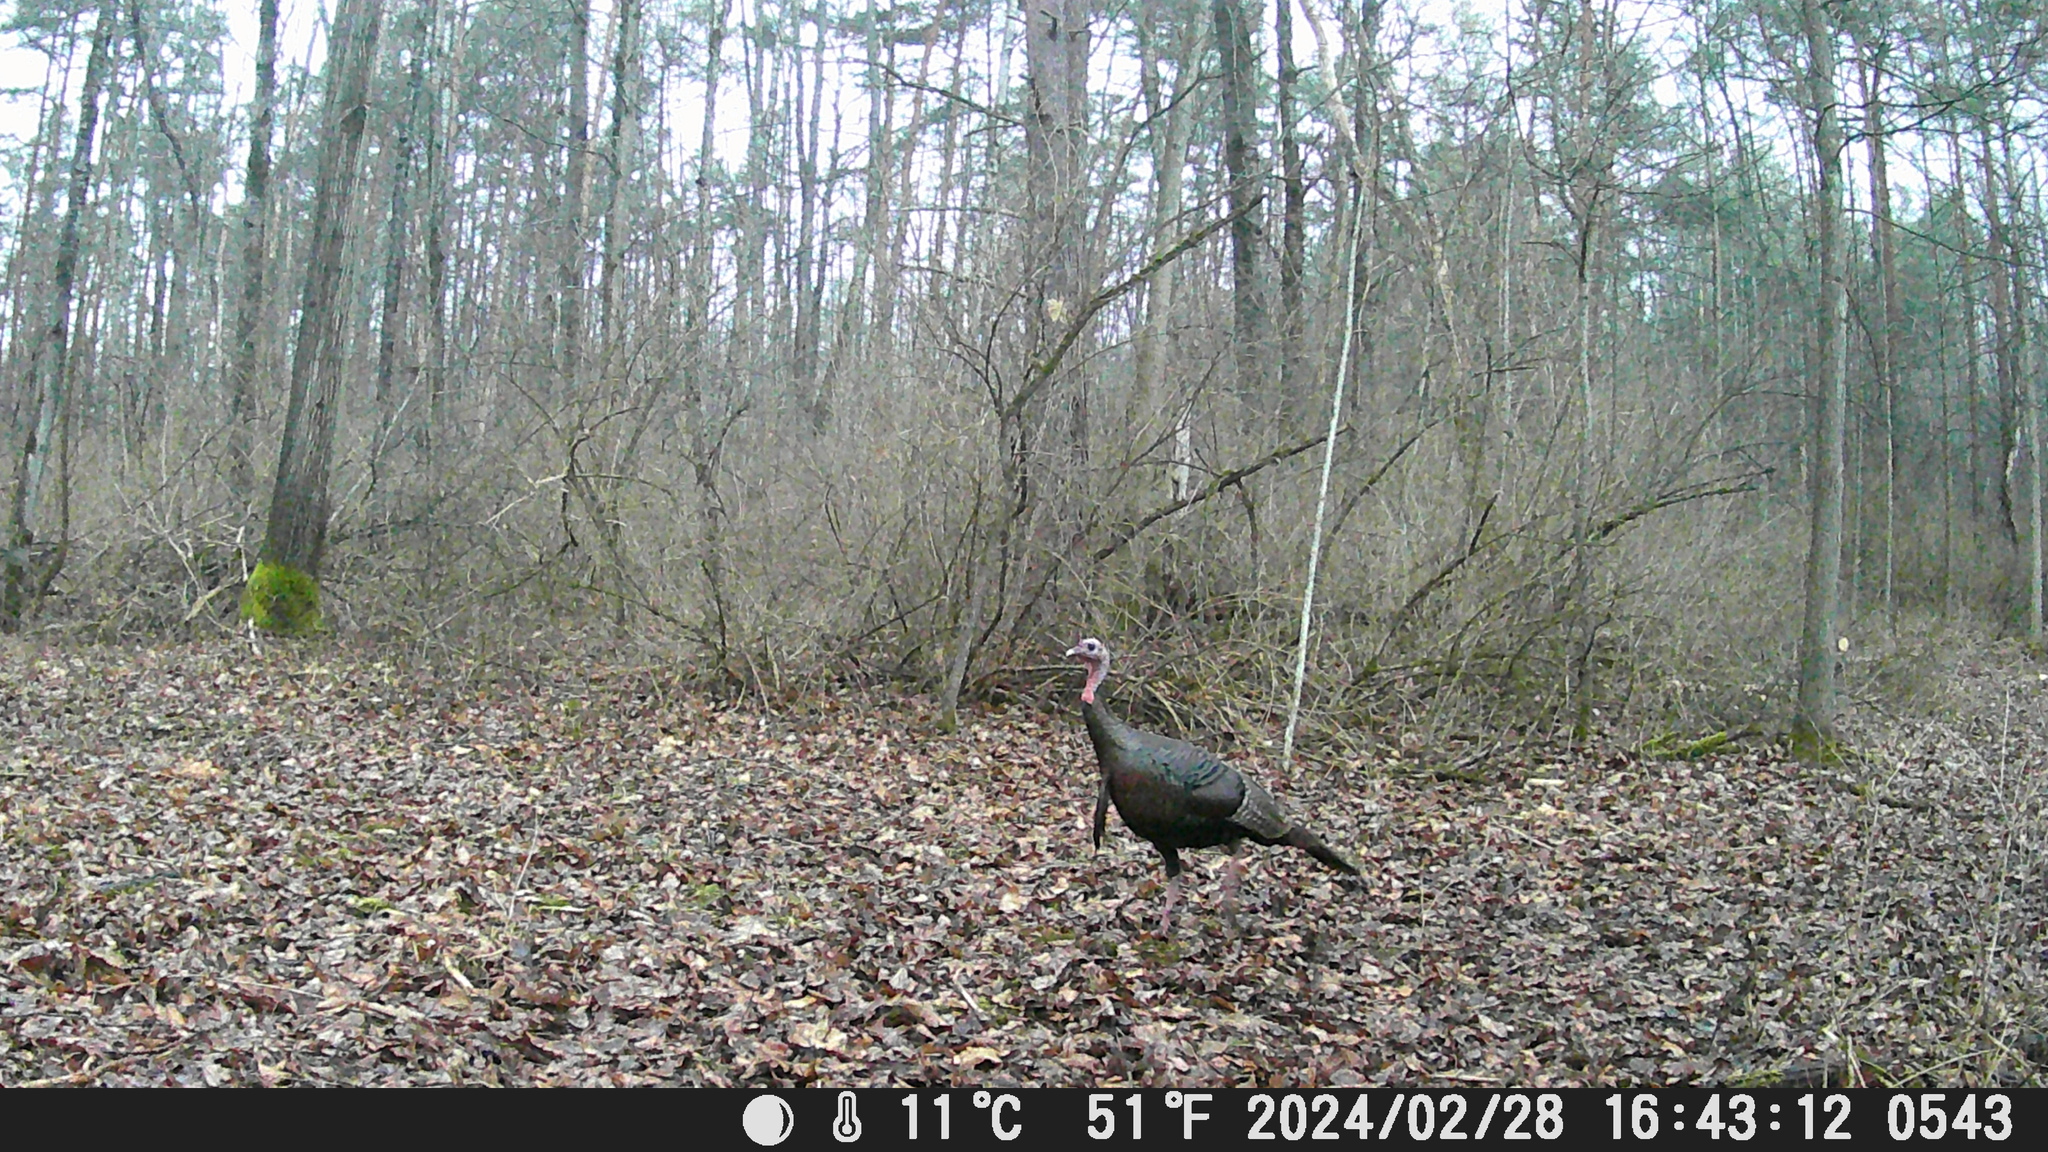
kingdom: Animalia
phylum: Chordata
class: Aves
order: Galliformes
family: Phasianidae
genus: Meleagris
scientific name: Meleagris gallopavo
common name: Wild turkey
